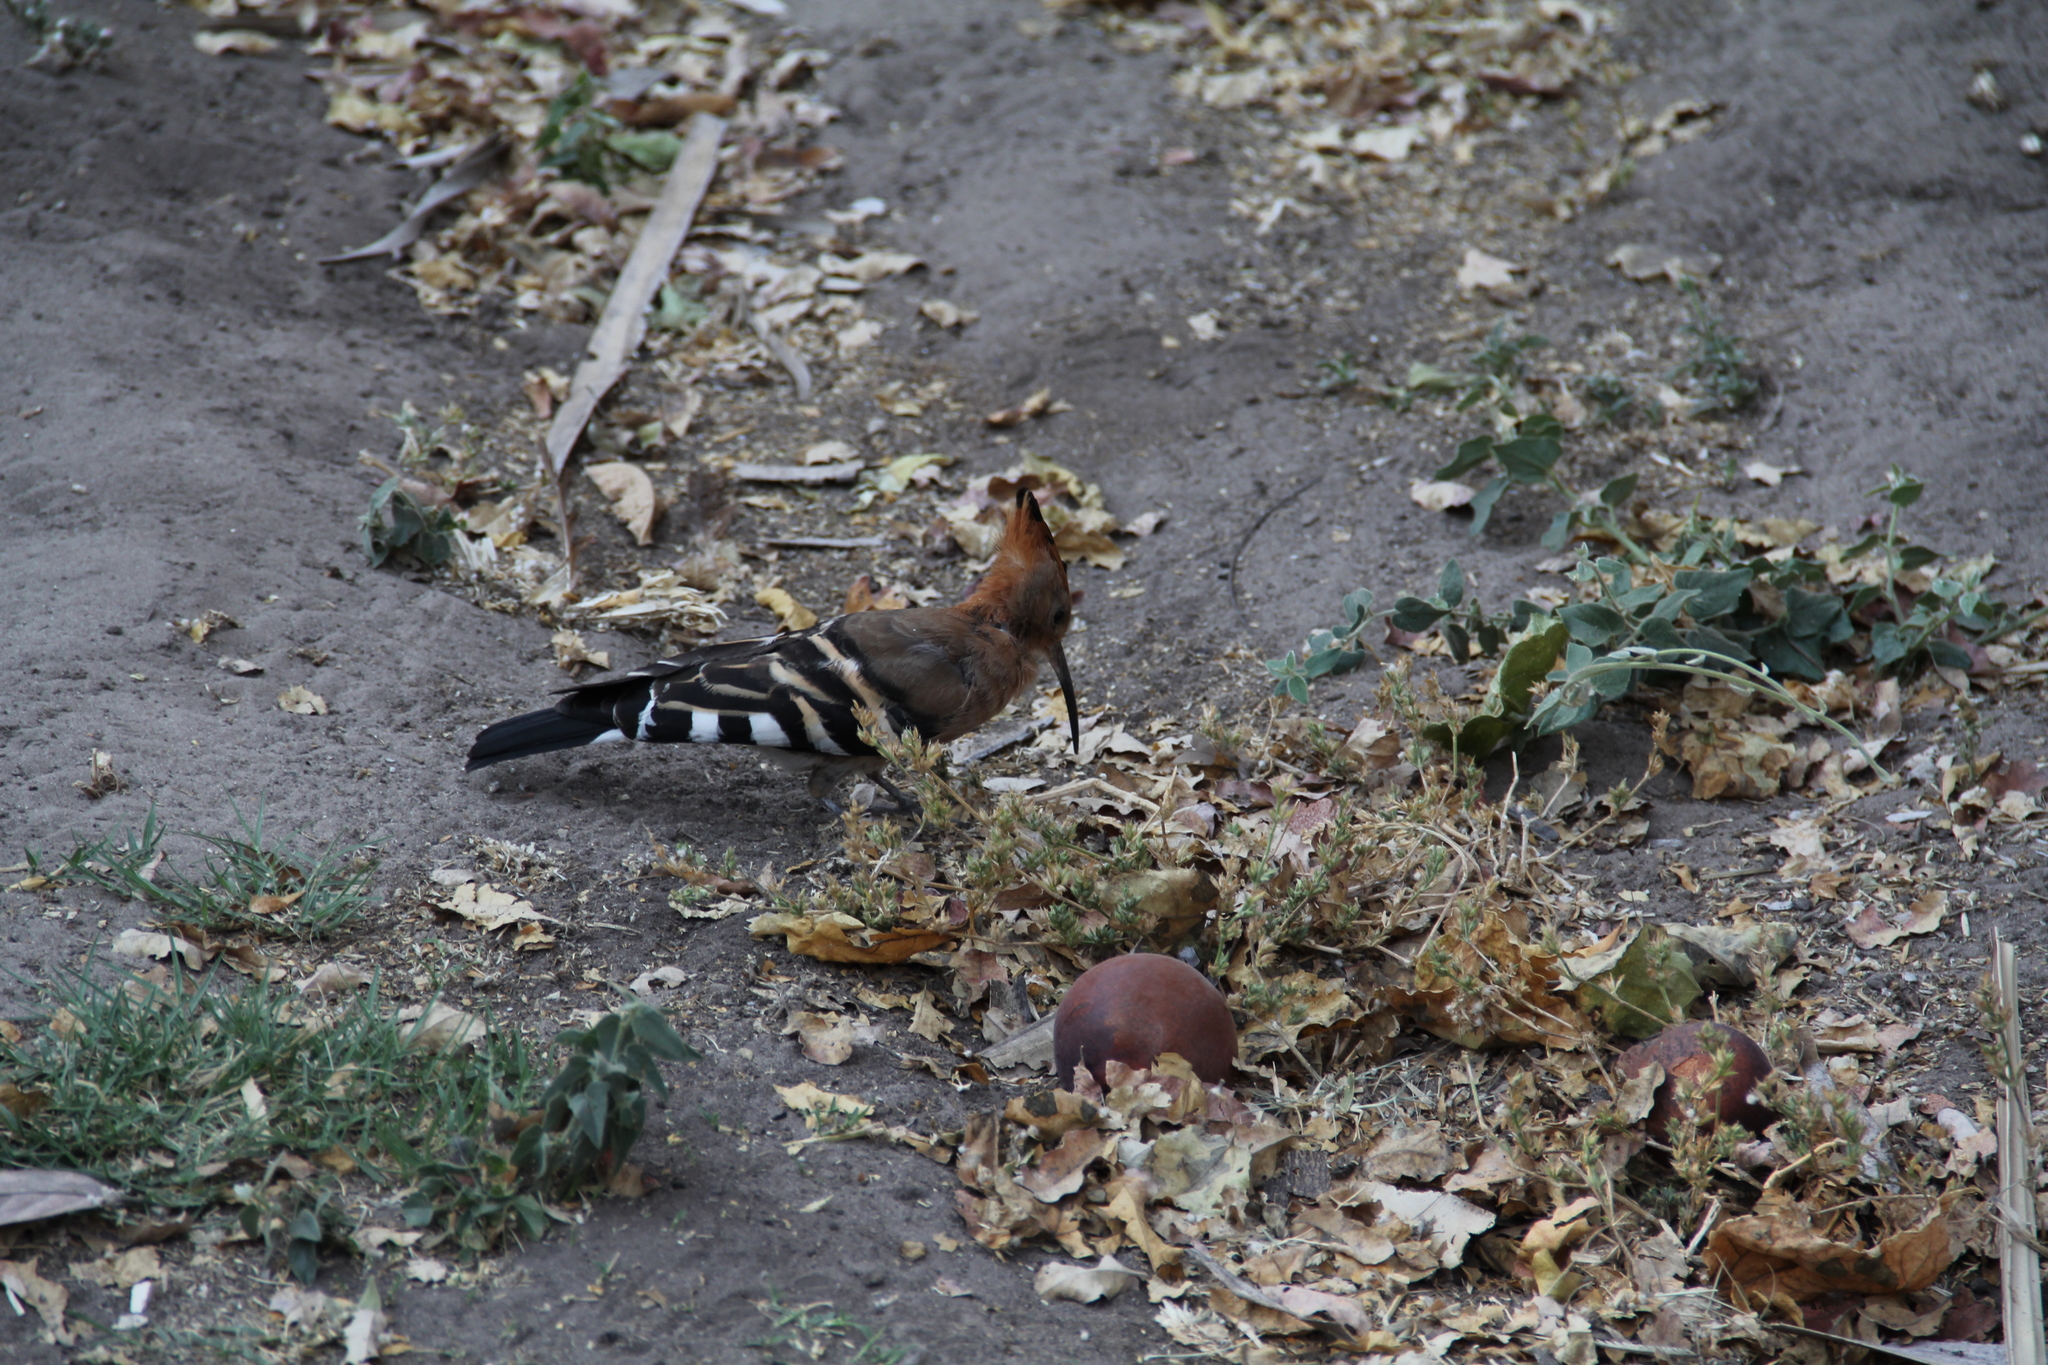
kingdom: Animalia
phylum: Chordata
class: Aves
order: Bucerotiformes
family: Upupidae
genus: Upupa
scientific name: Upupa africana
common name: African hoopoe
